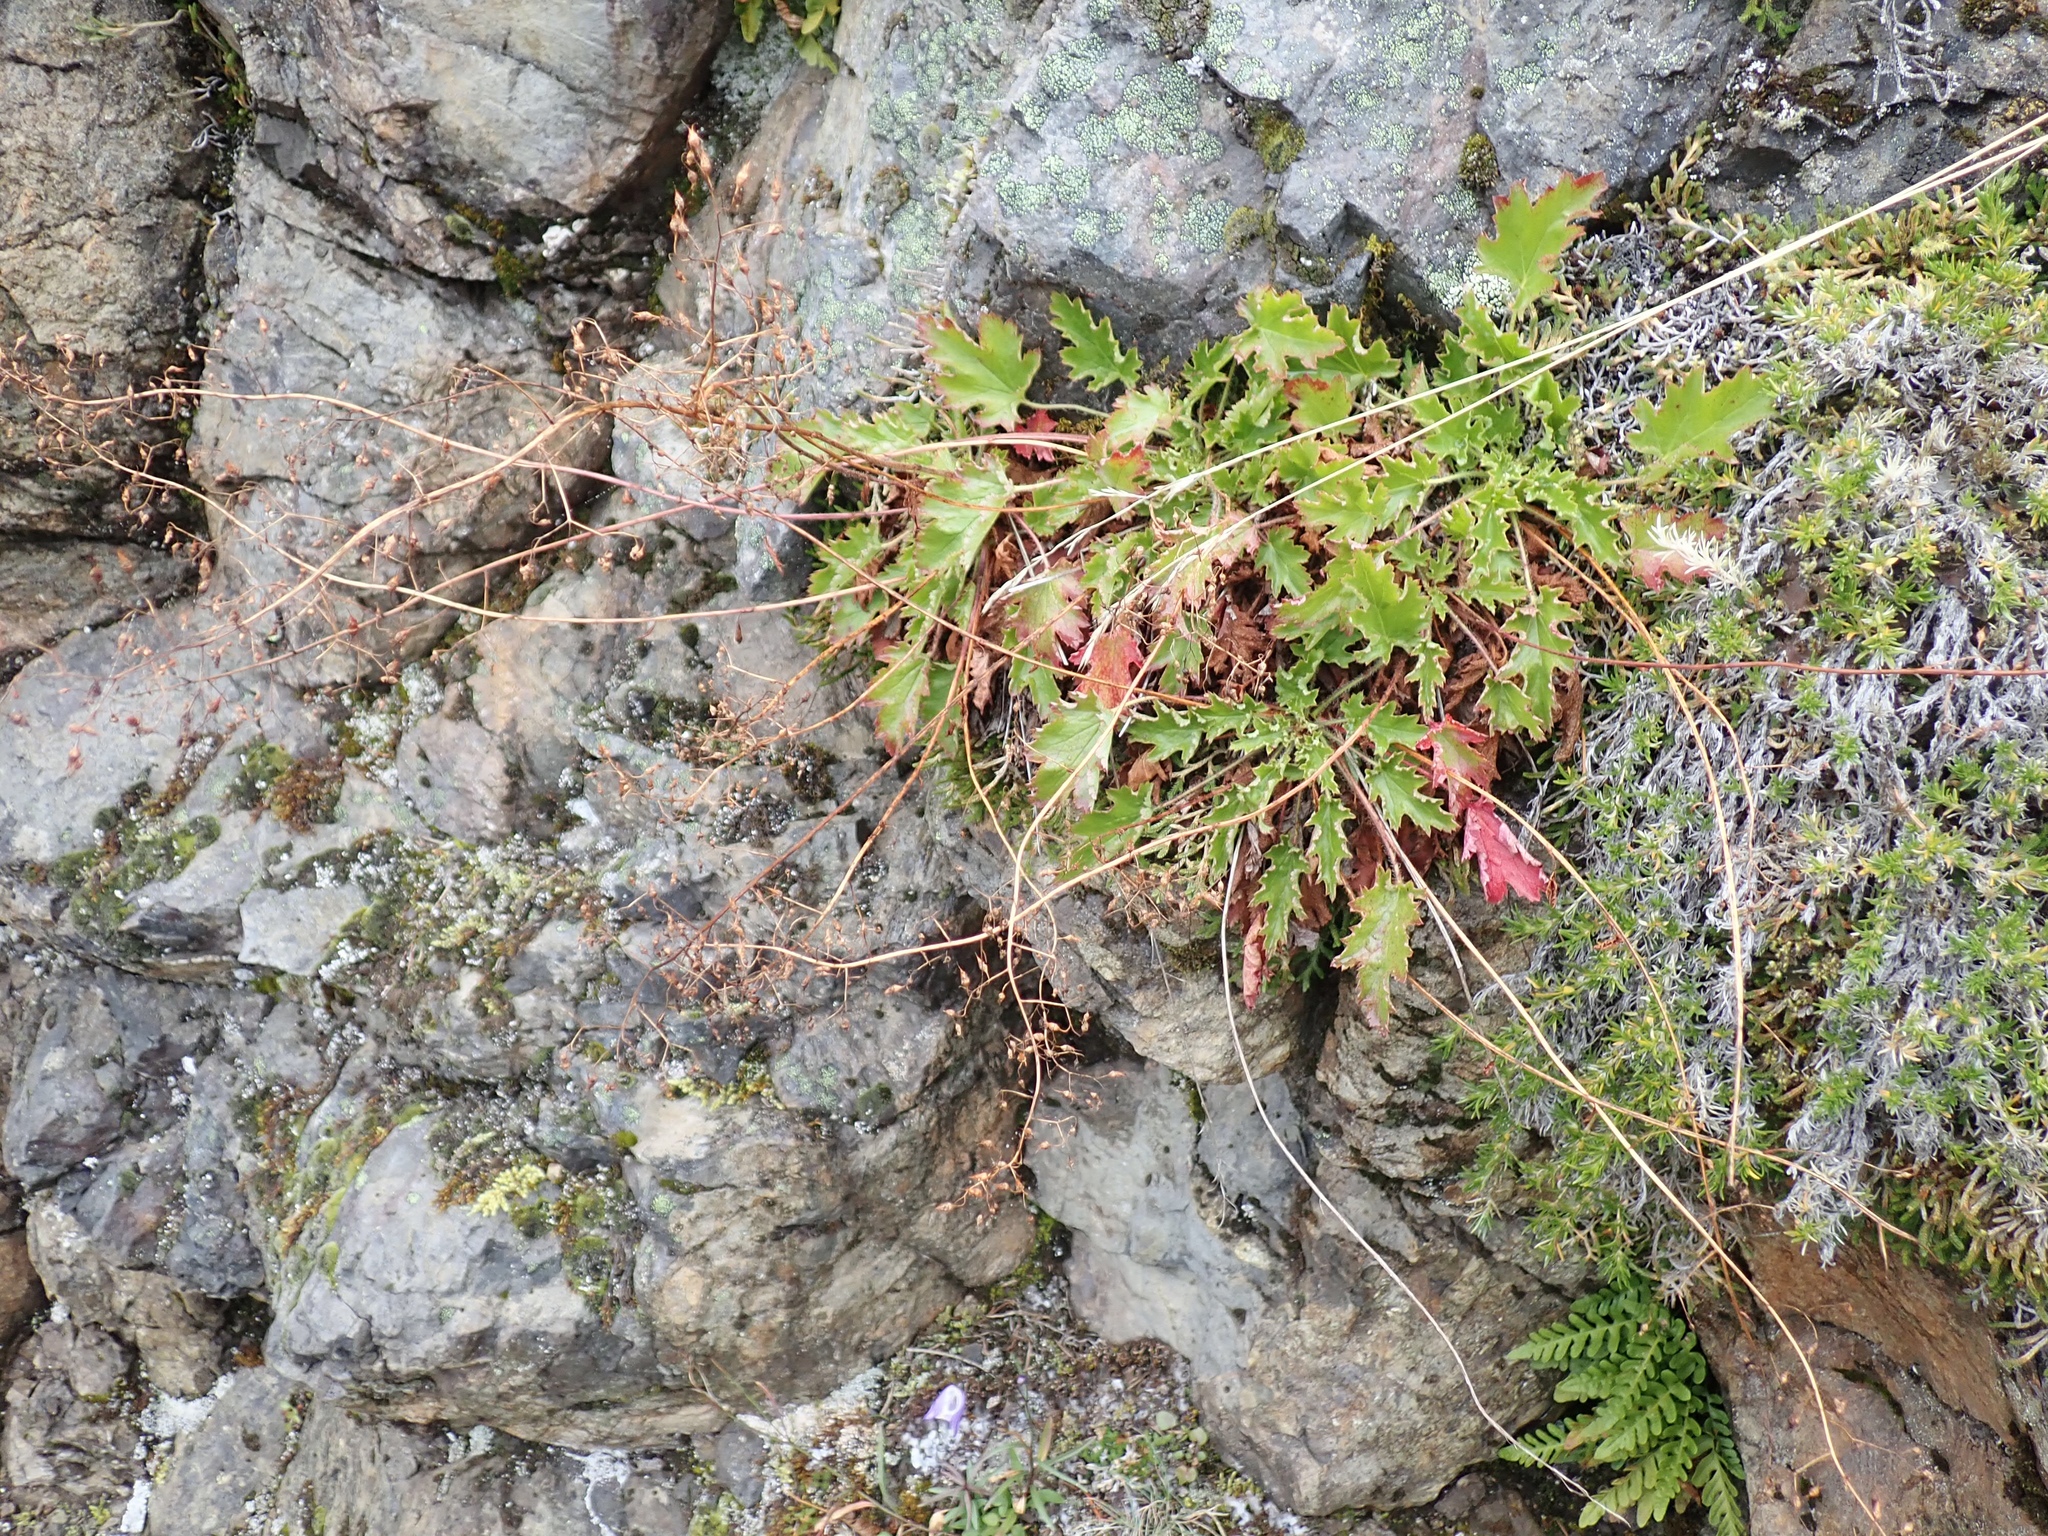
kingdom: Plantae
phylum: Tracheophyta
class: Magnoliopsida
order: Saxifragales
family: Saxifragaceae
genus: Heuchera
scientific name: Heuchera micrantha
